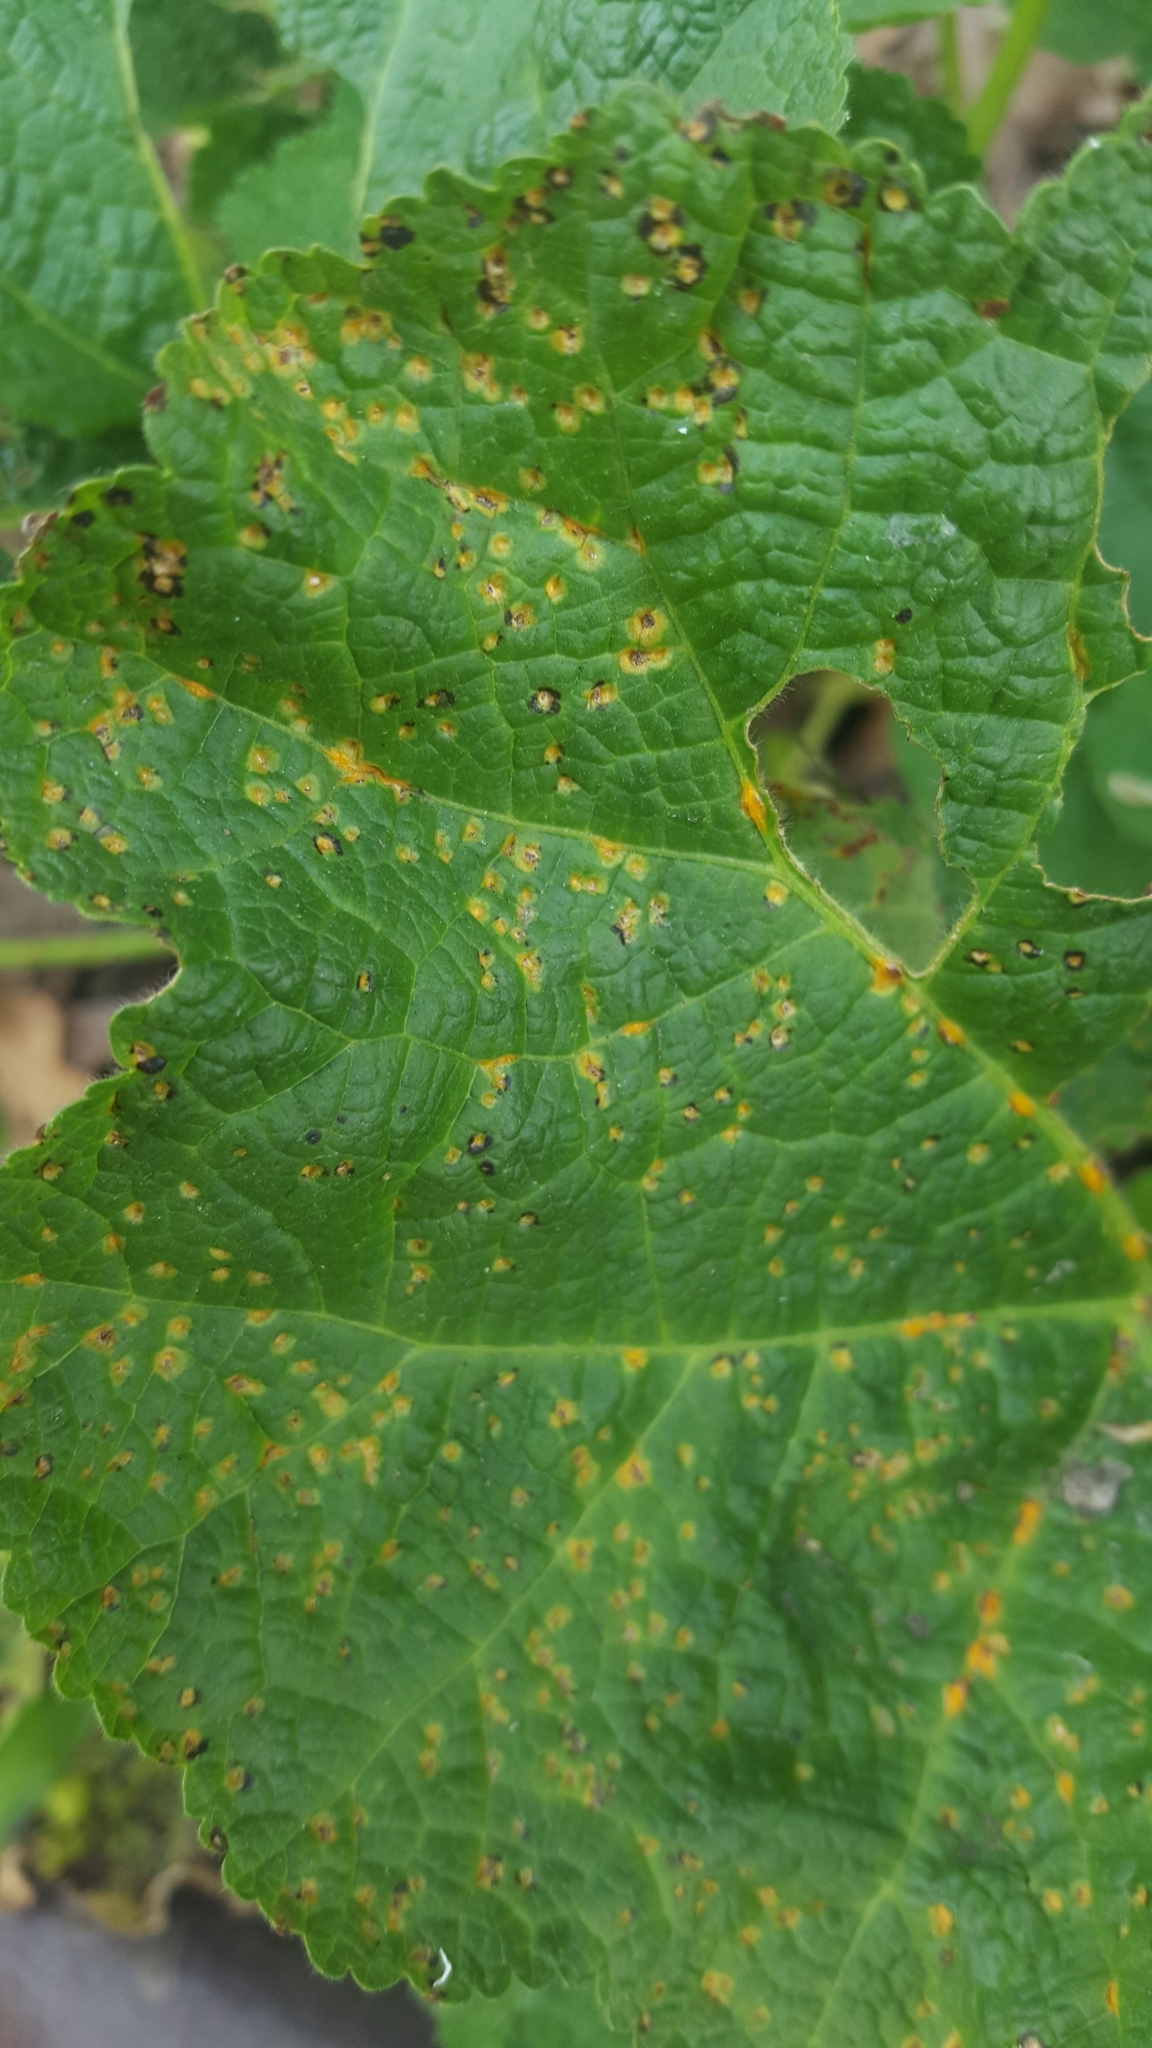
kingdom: Fungi
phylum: Basidiomycota
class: Pucciniomycetes
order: Pucciniales
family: Pucciniaceae
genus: Puccinia
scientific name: Puccinia malvacearum
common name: Hollyhock rust
